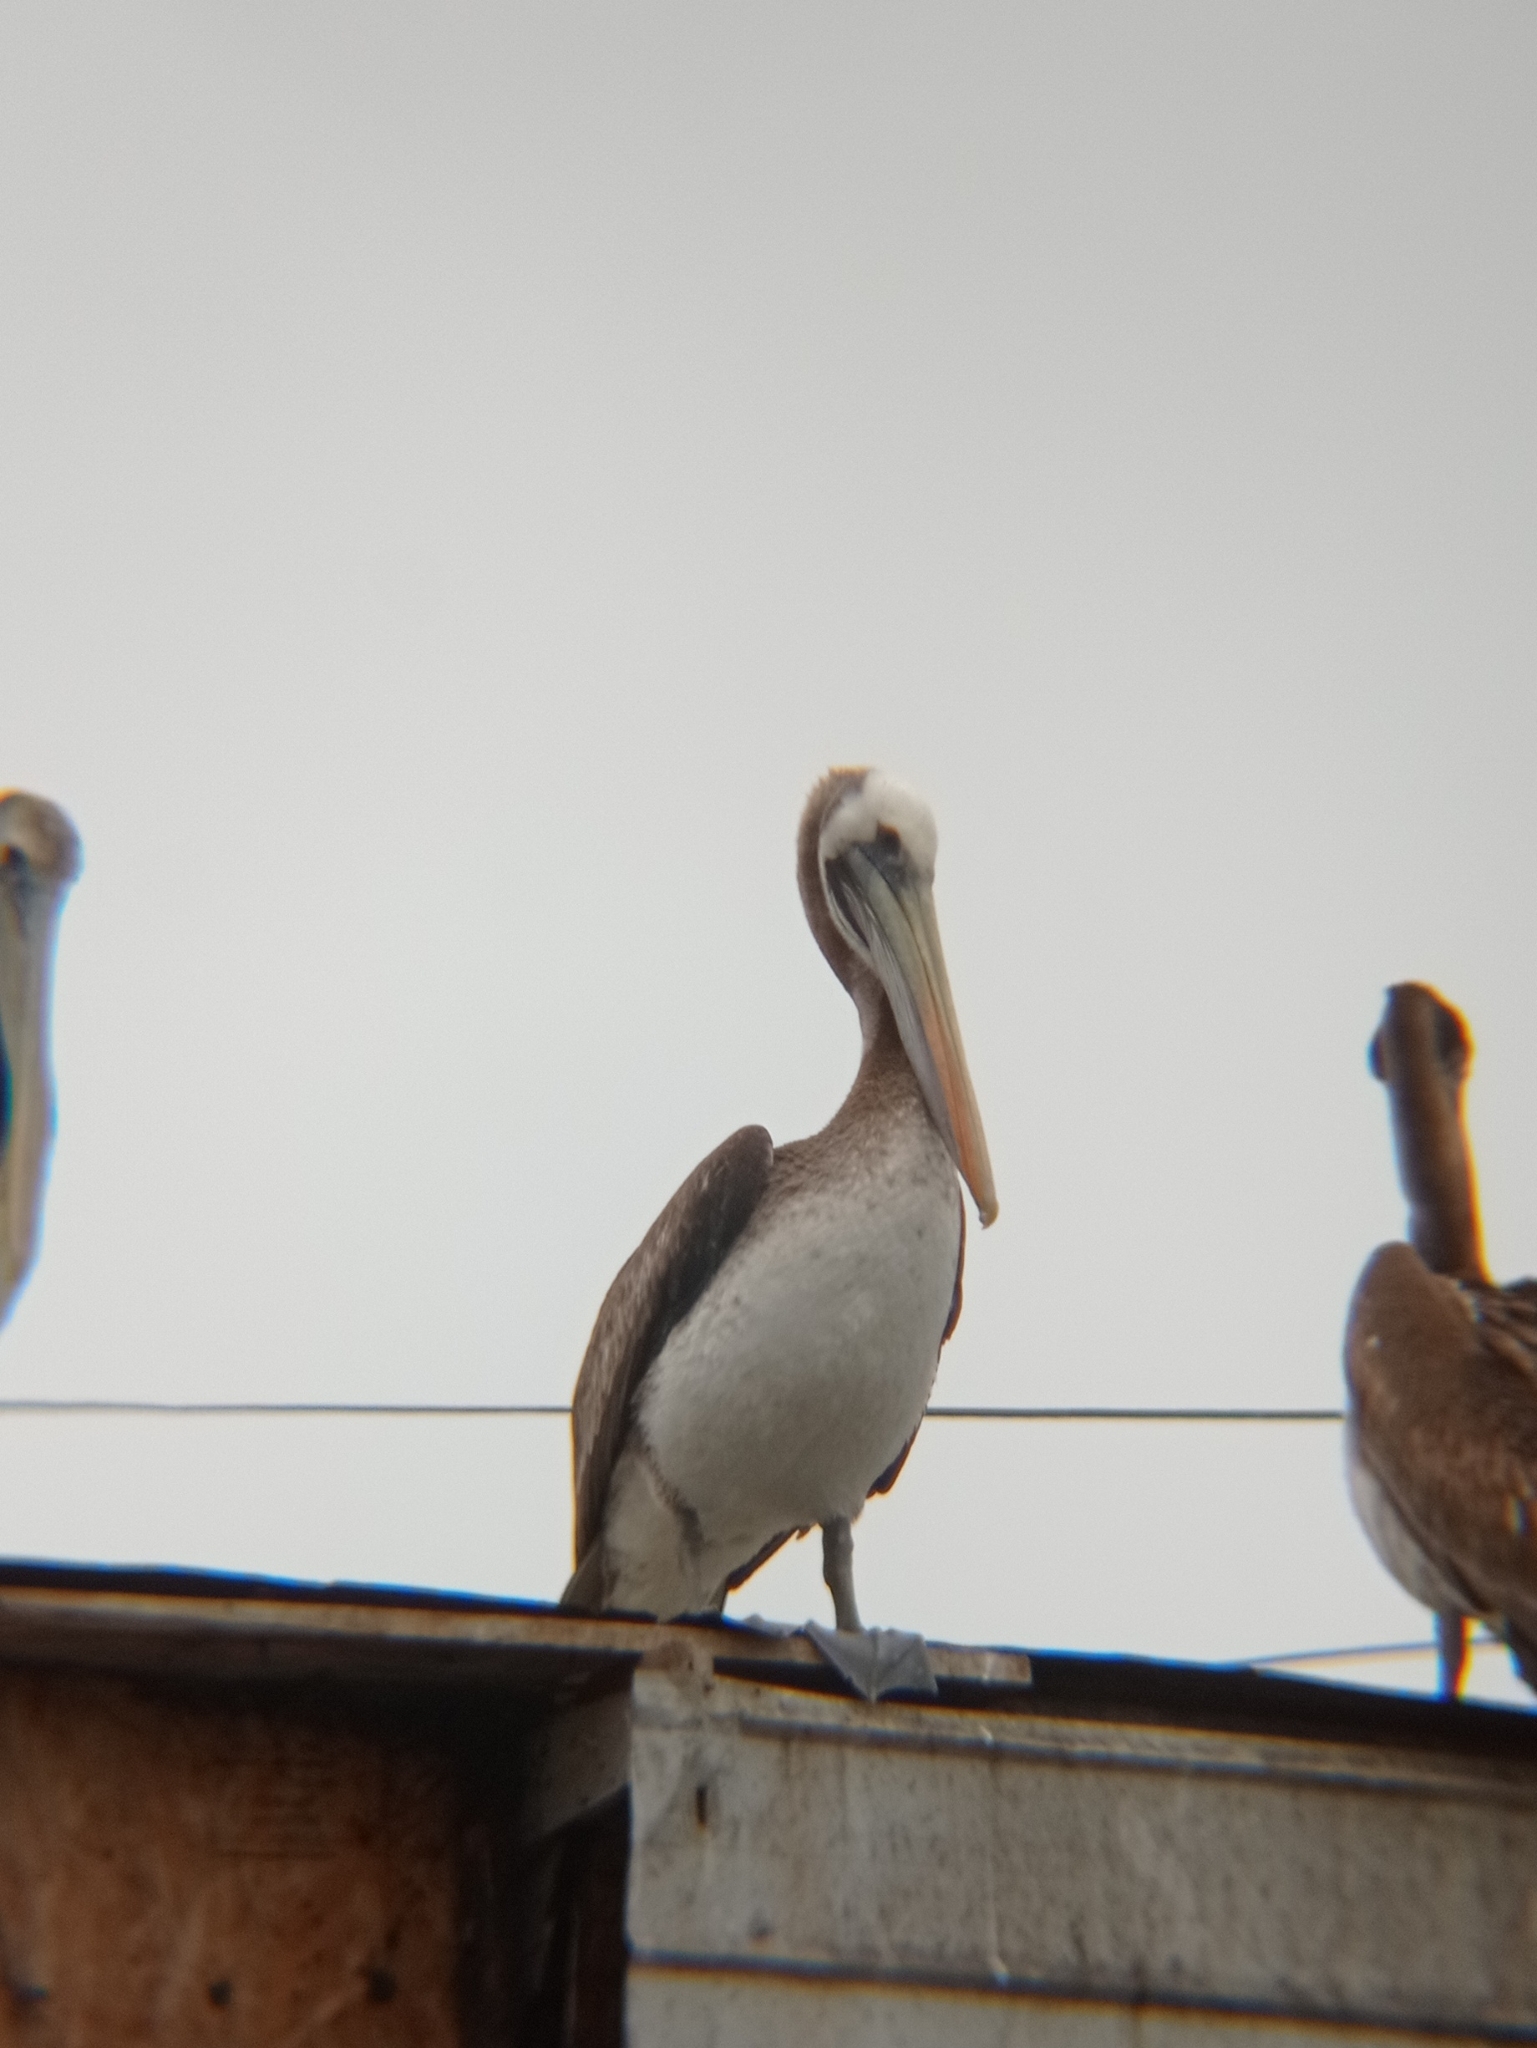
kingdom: Animalia
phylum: Chordata
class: Aves
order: Pelecaniformes
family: Pelecanidae
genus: Pelecanus
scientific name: Pelecanus thagus
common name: Peruvian pelican
